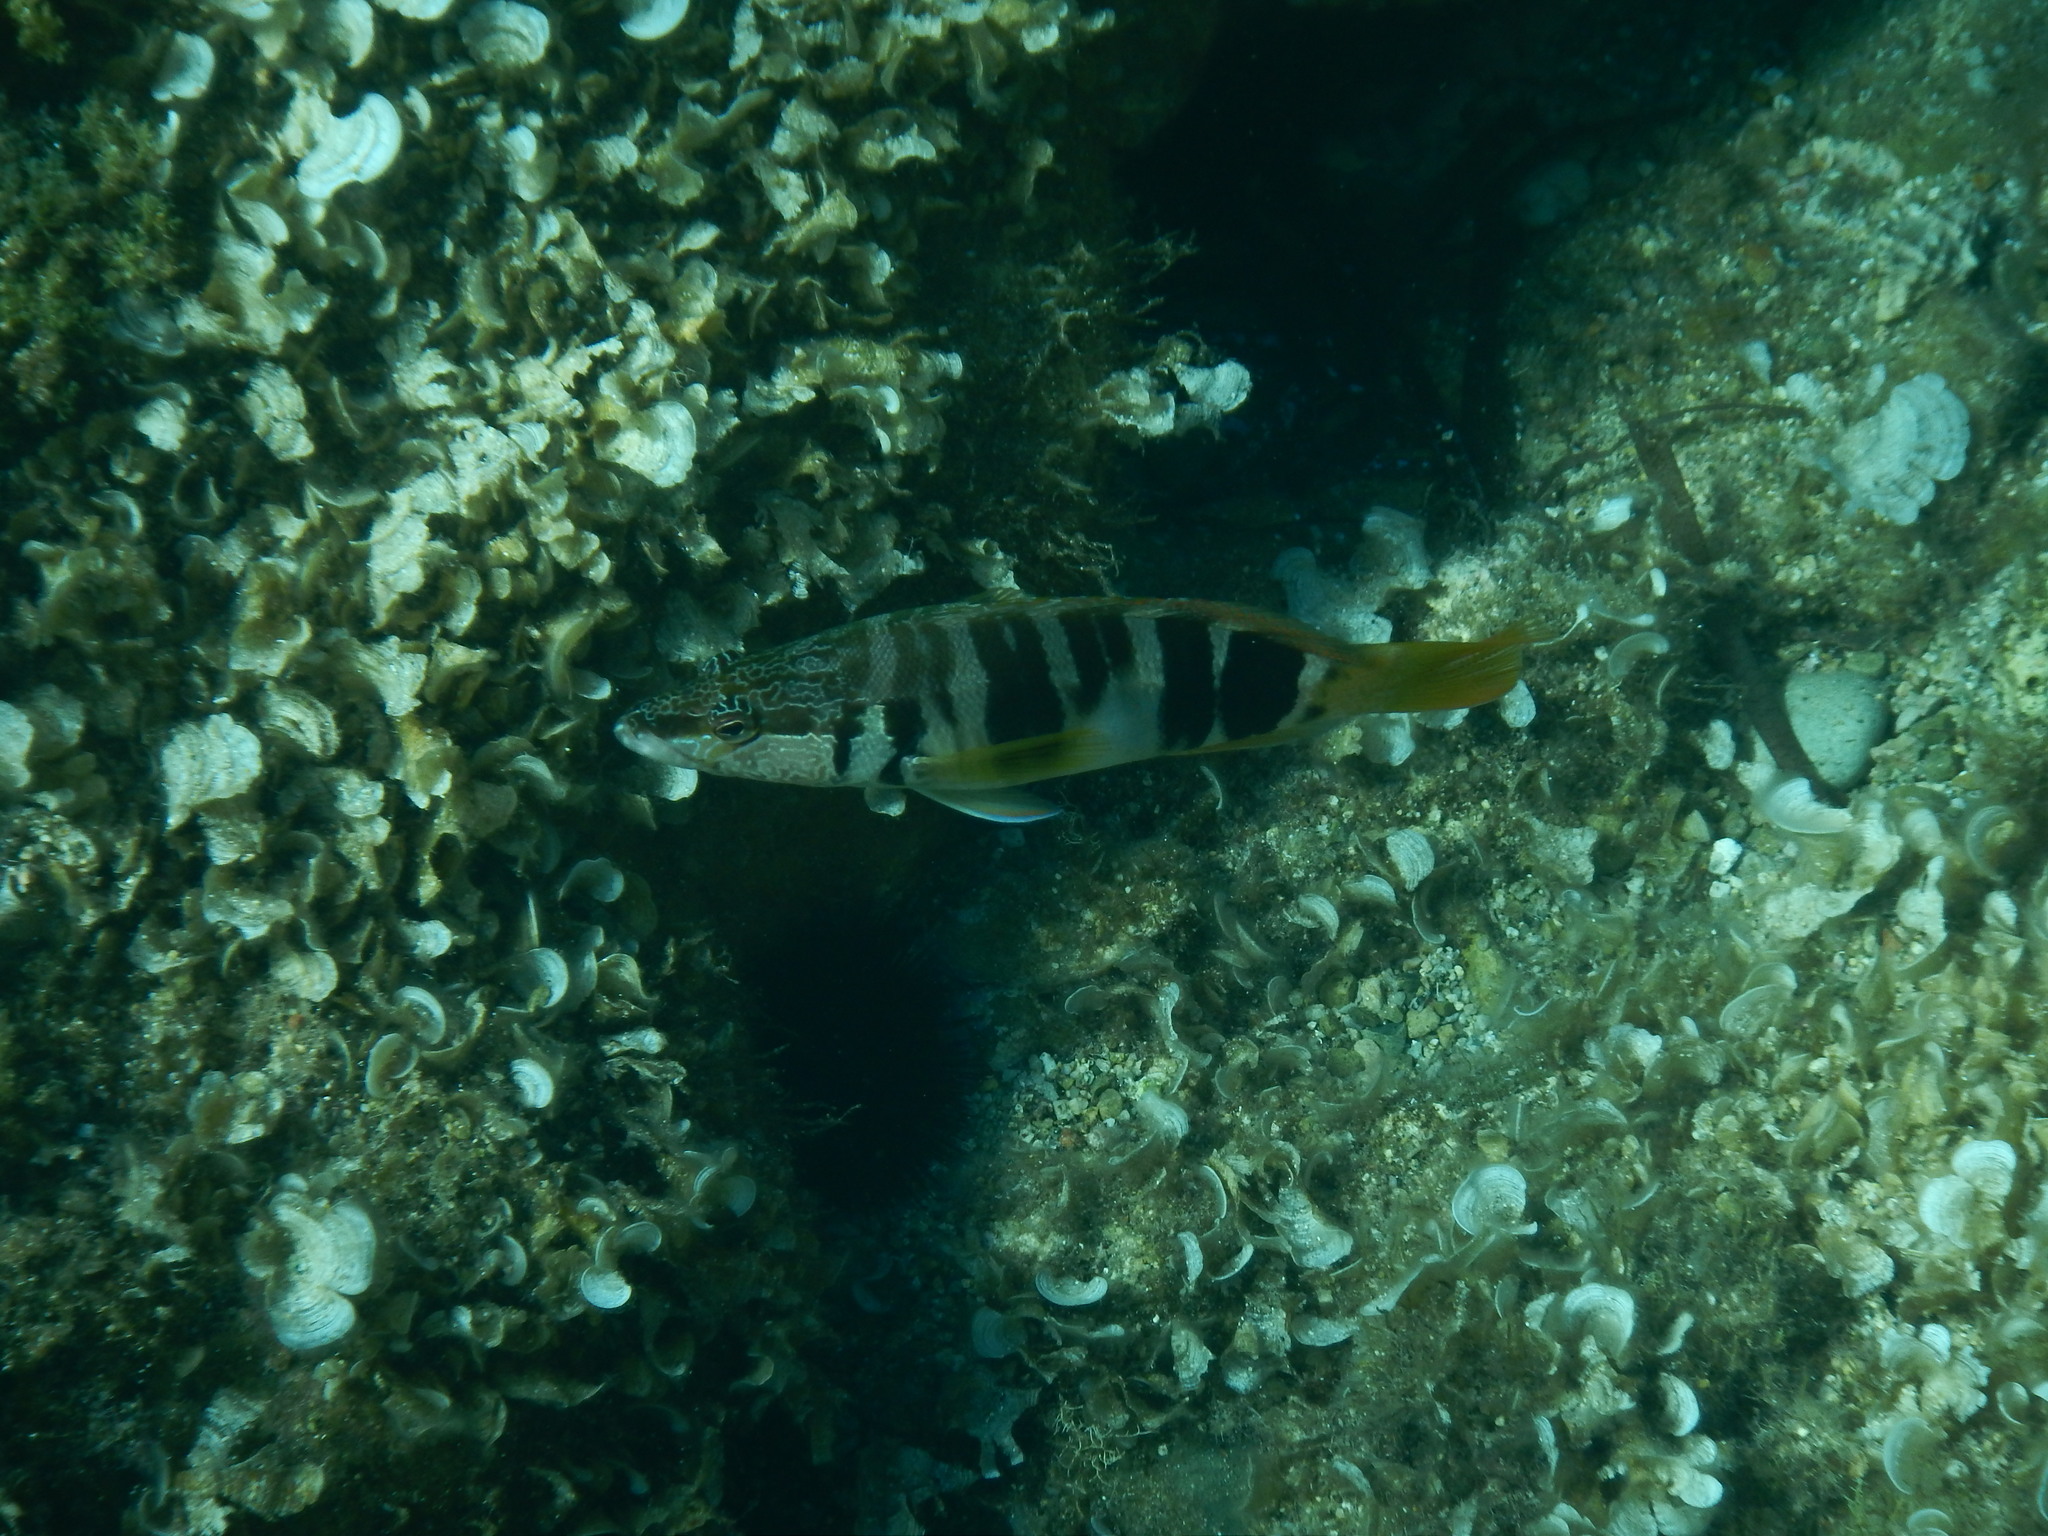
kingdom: Animalia
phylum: Chordata
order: Perciformes
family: Serranidae
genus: Serranus
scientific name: Serranus scriba
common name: Painted comber
